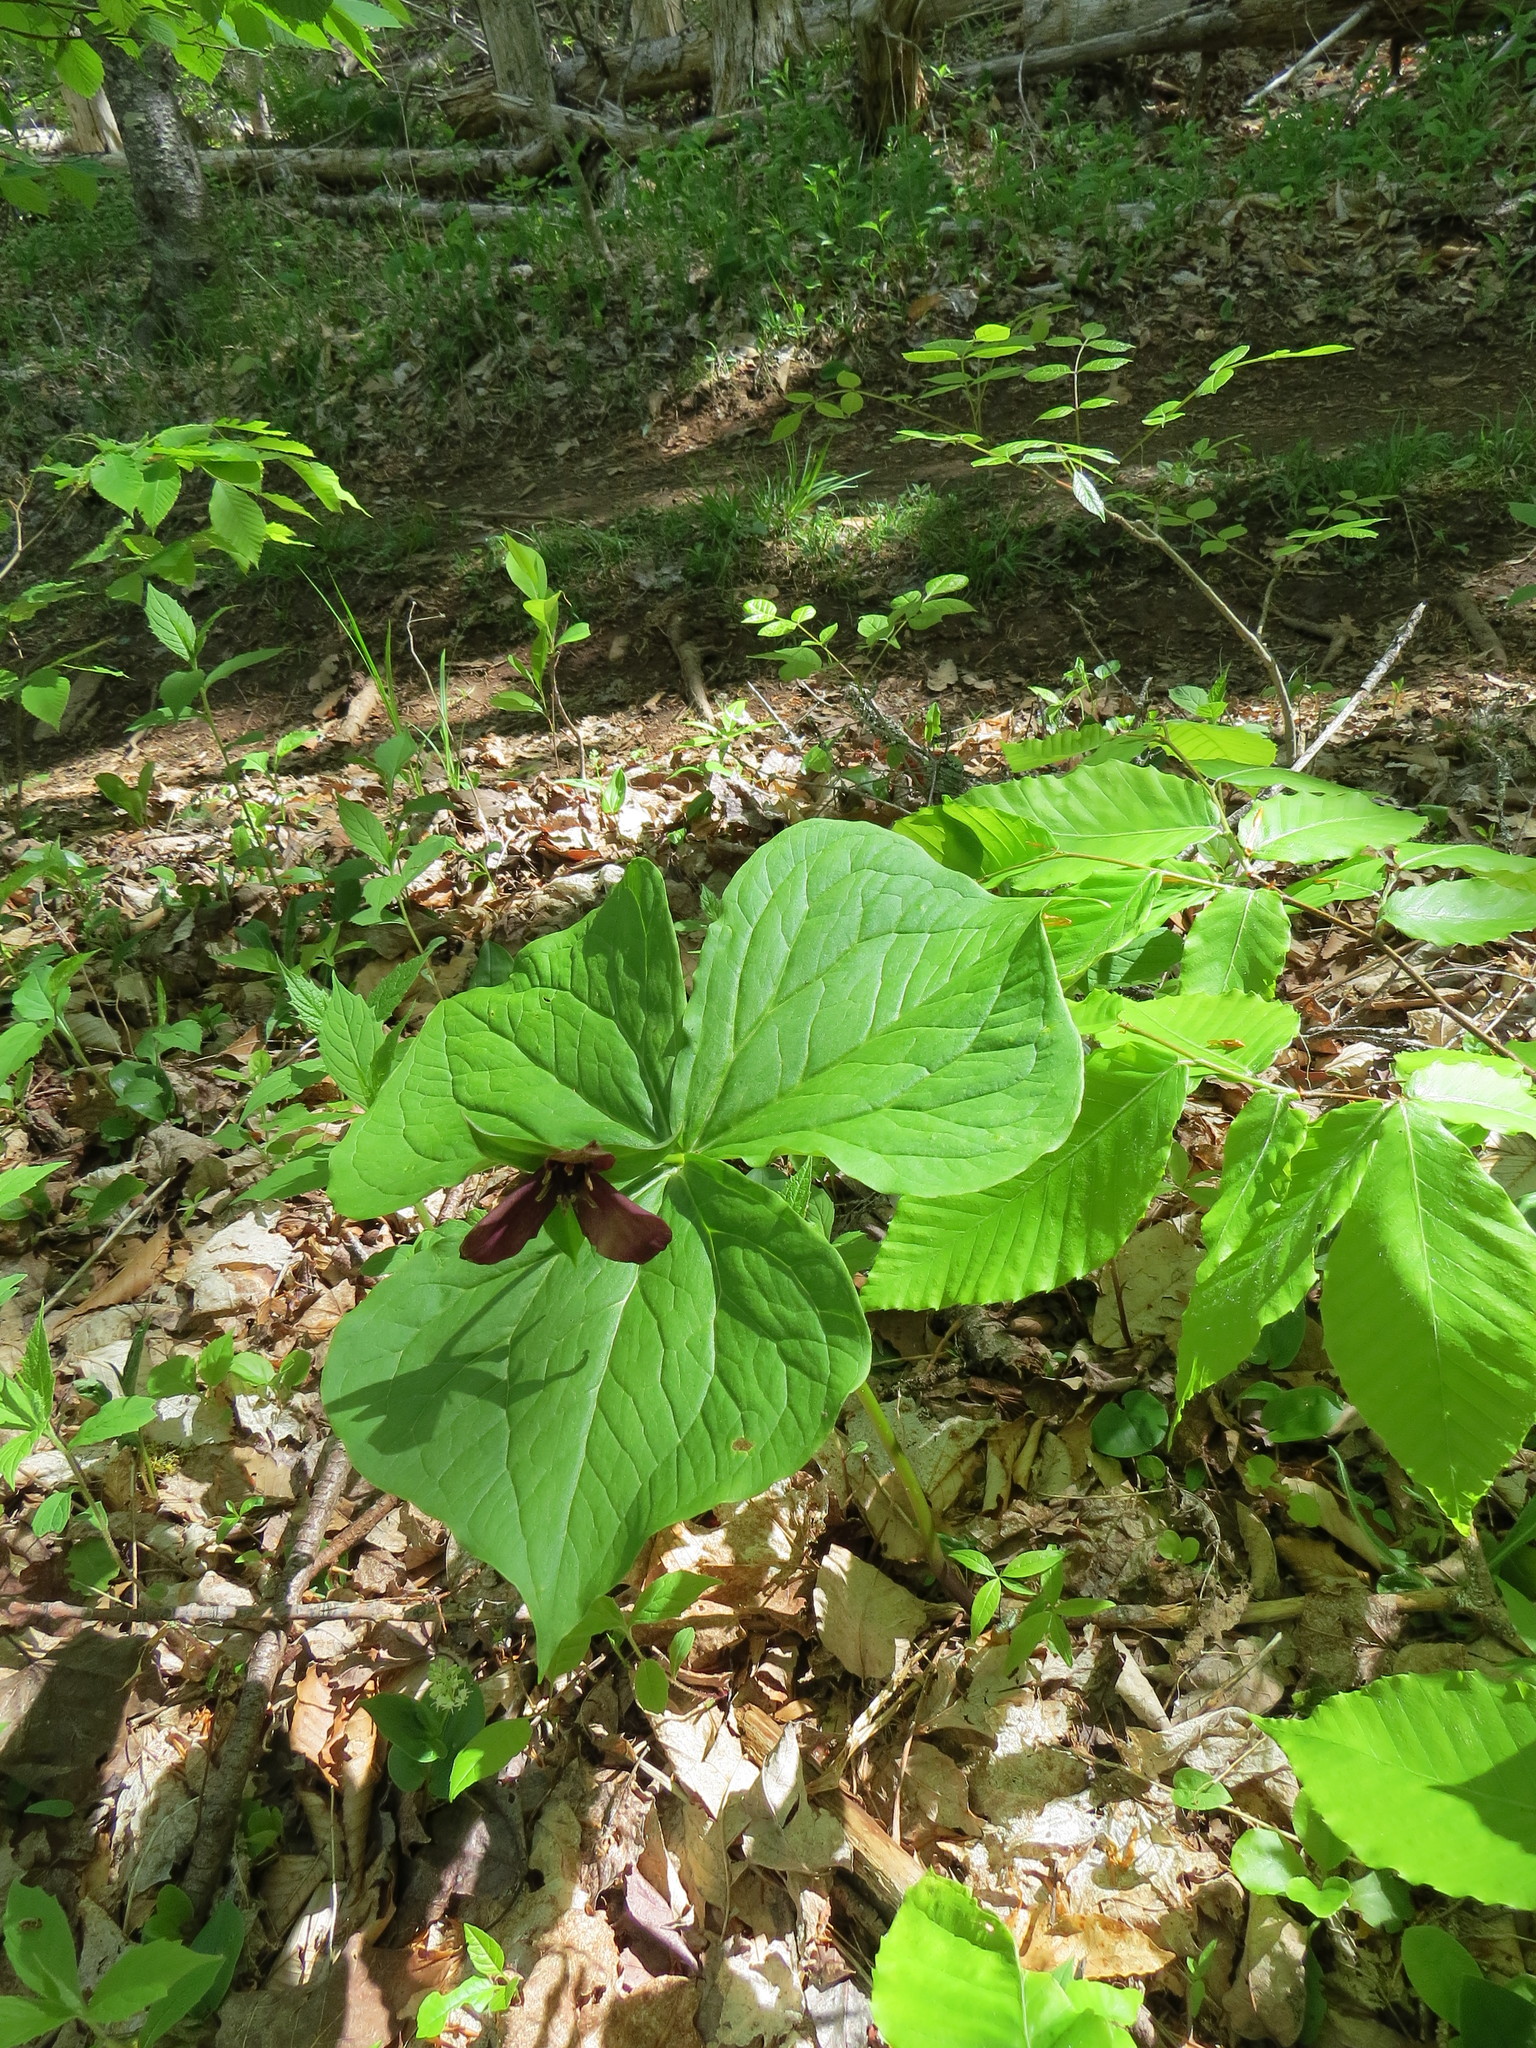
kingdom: Plantae
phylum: Tracheophyta
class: Liliopsida
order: Liliales
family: Melanthiaceae
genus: Trillium
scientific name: Trillium erectum
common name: Purple trillium
